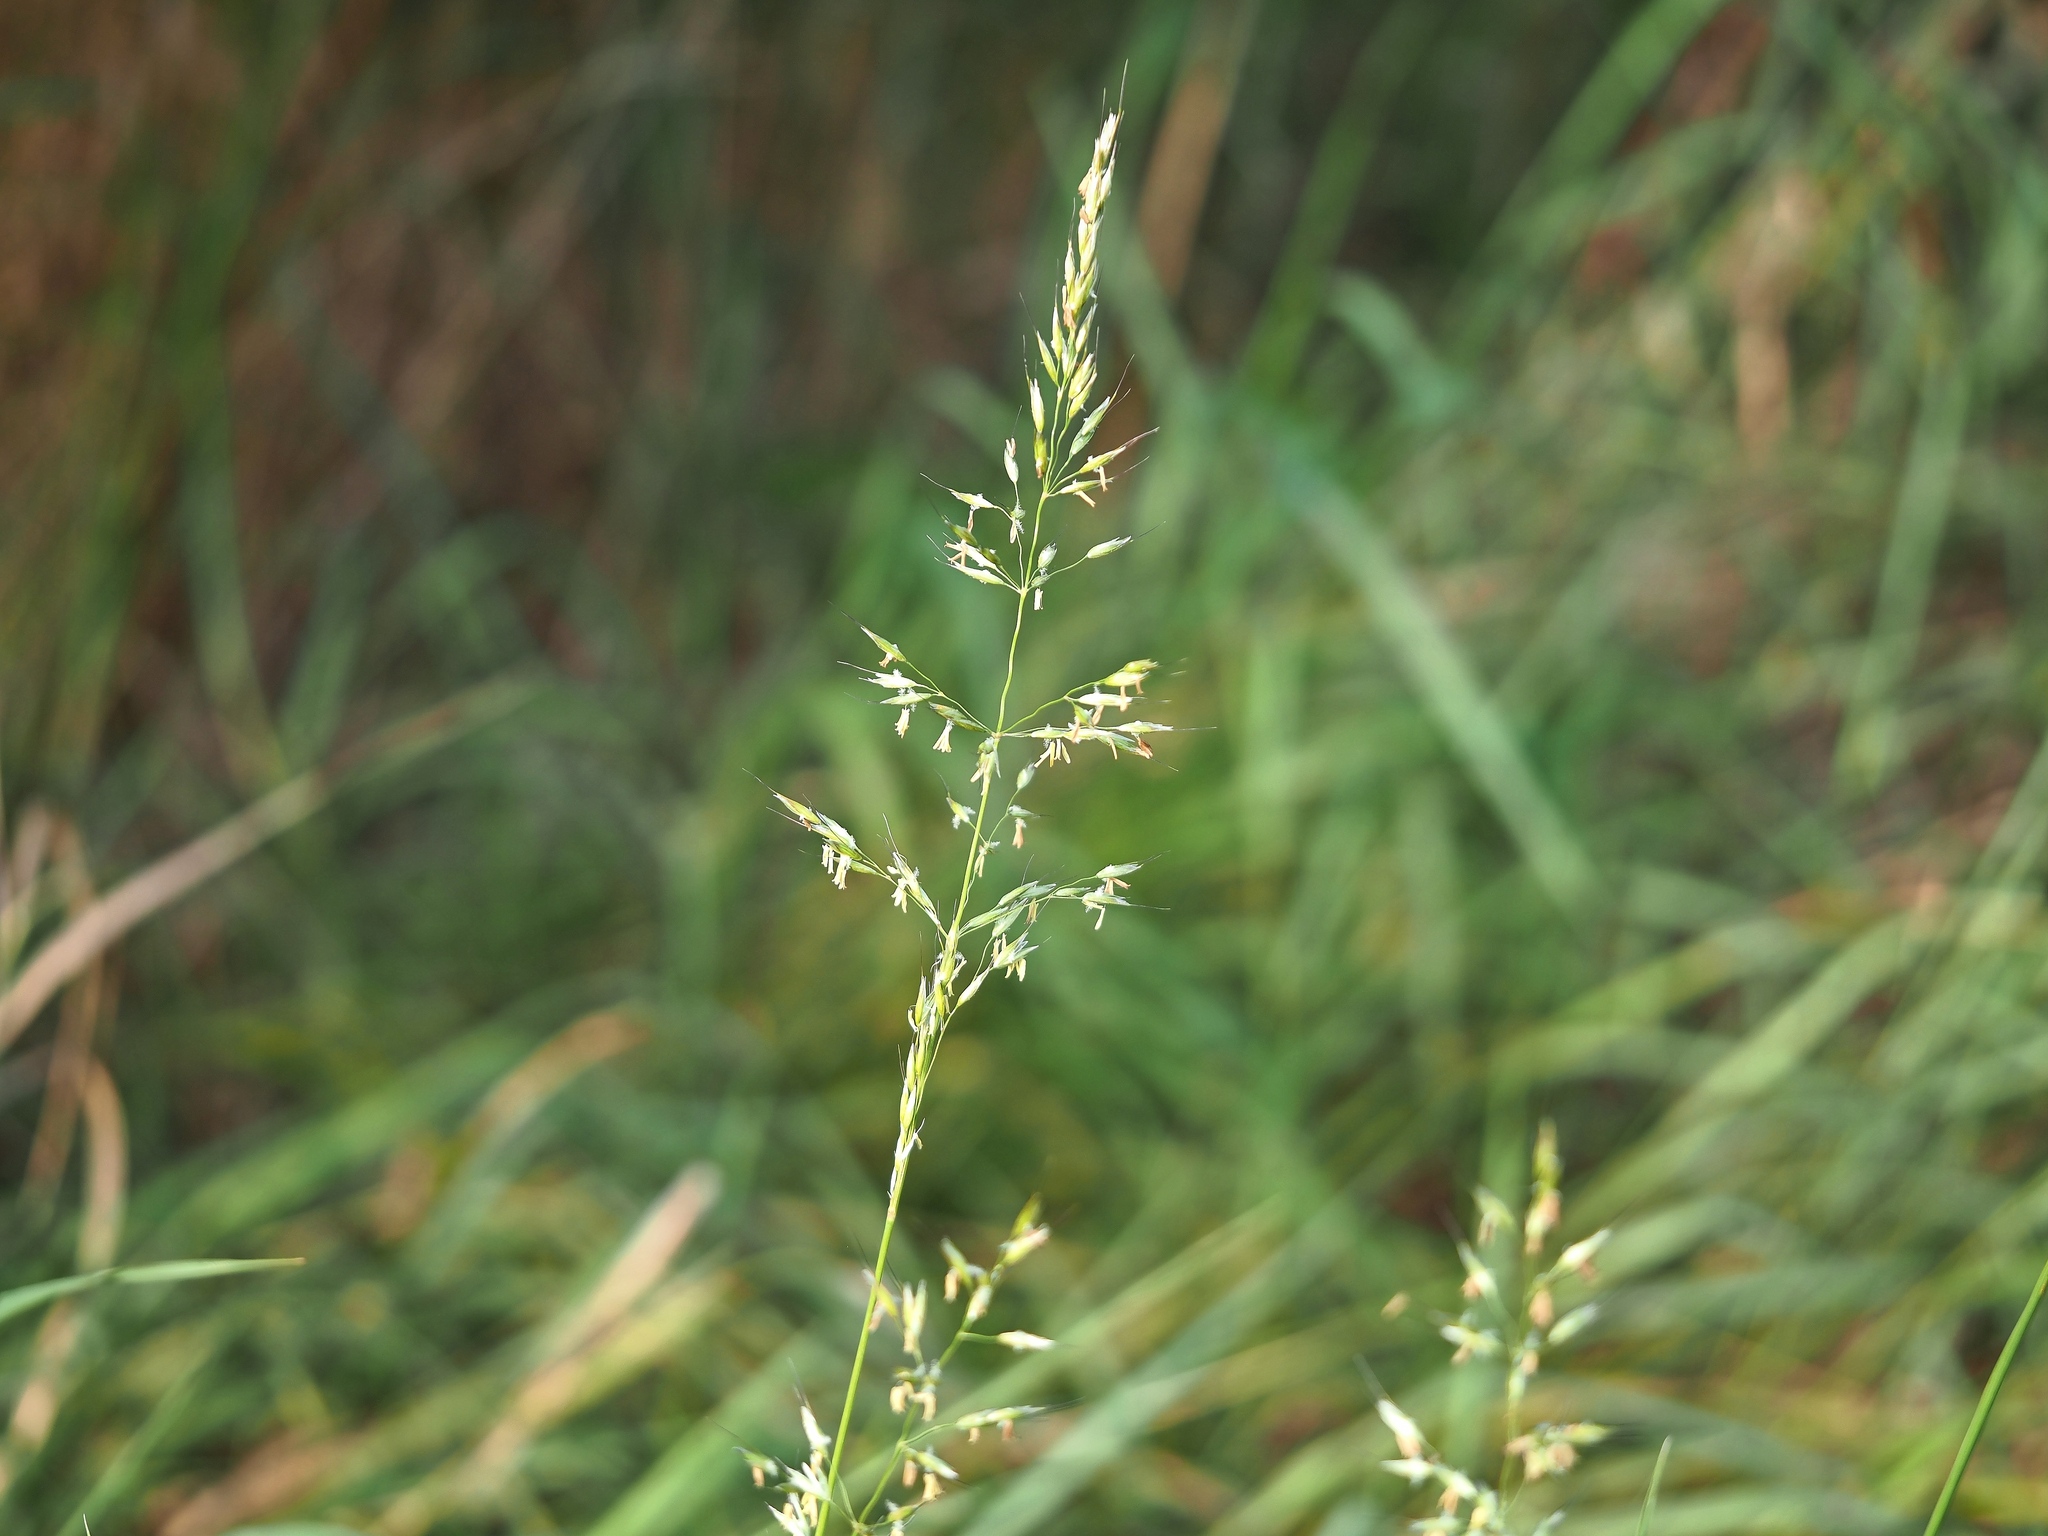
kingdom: Plantae
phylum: Tracheophyta
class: Liliopsida
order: Poales
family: Poaceae
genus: Arrhenatherum
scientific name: Arrhenatherum elatius
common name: Tall oatgrass
